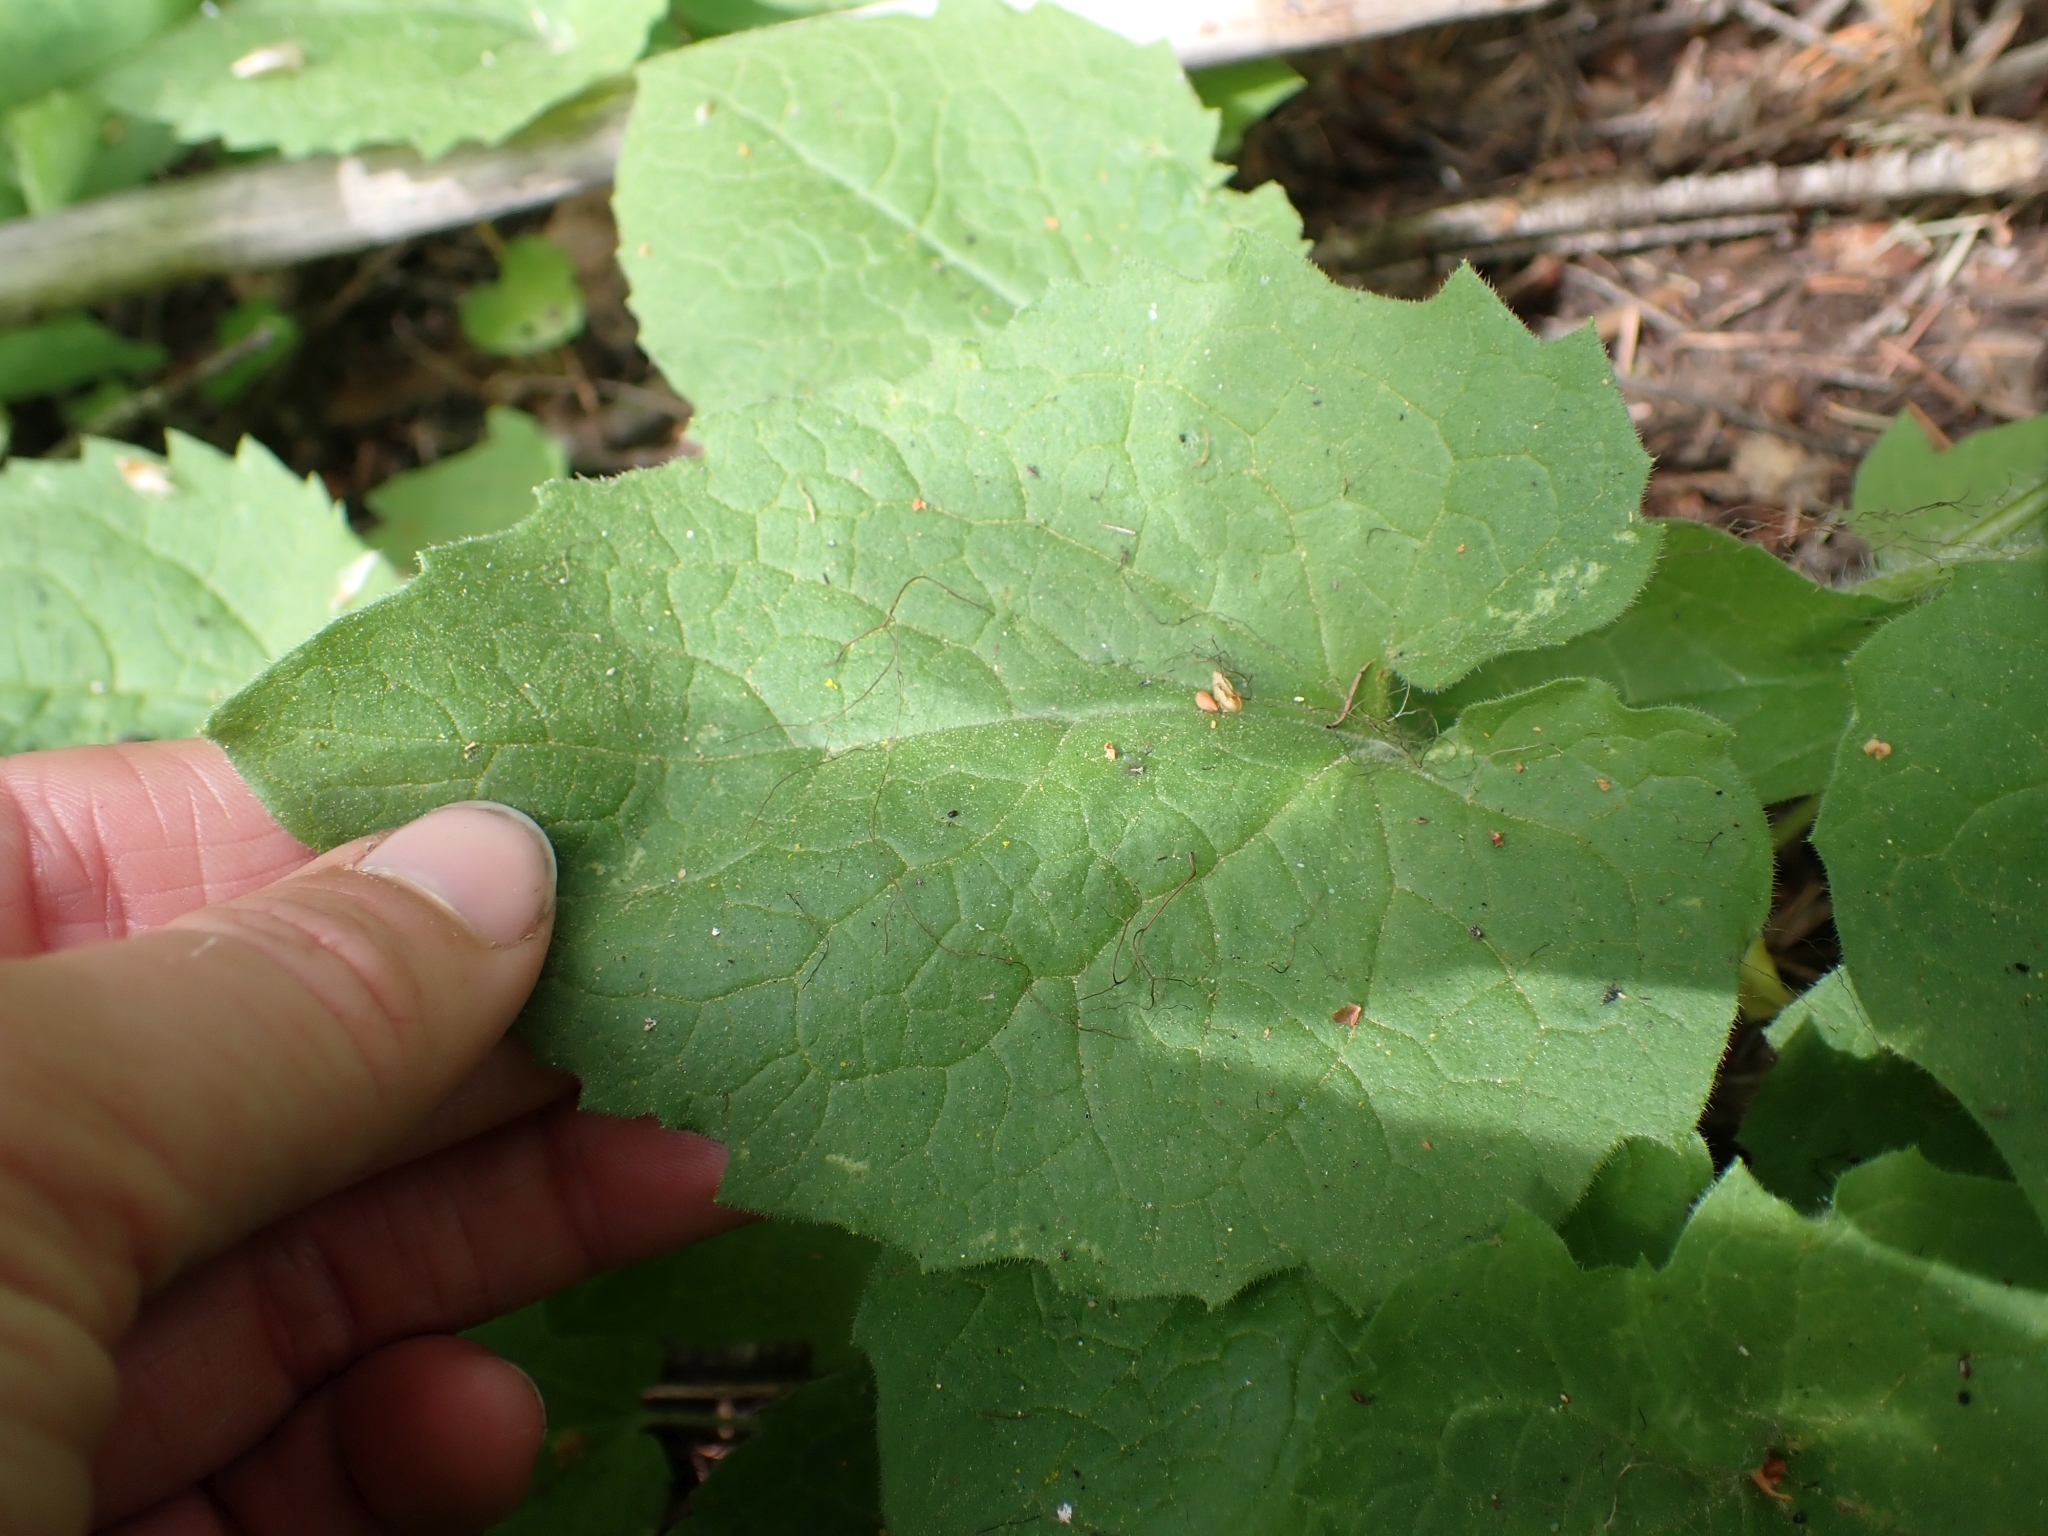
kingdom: Plantae
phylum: Tracheophyta
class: Magnoliopsida
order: Asterales
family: Asteraceae
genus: Arnica
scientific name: Arnica cordifolia
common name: Heart-leaf arnica
